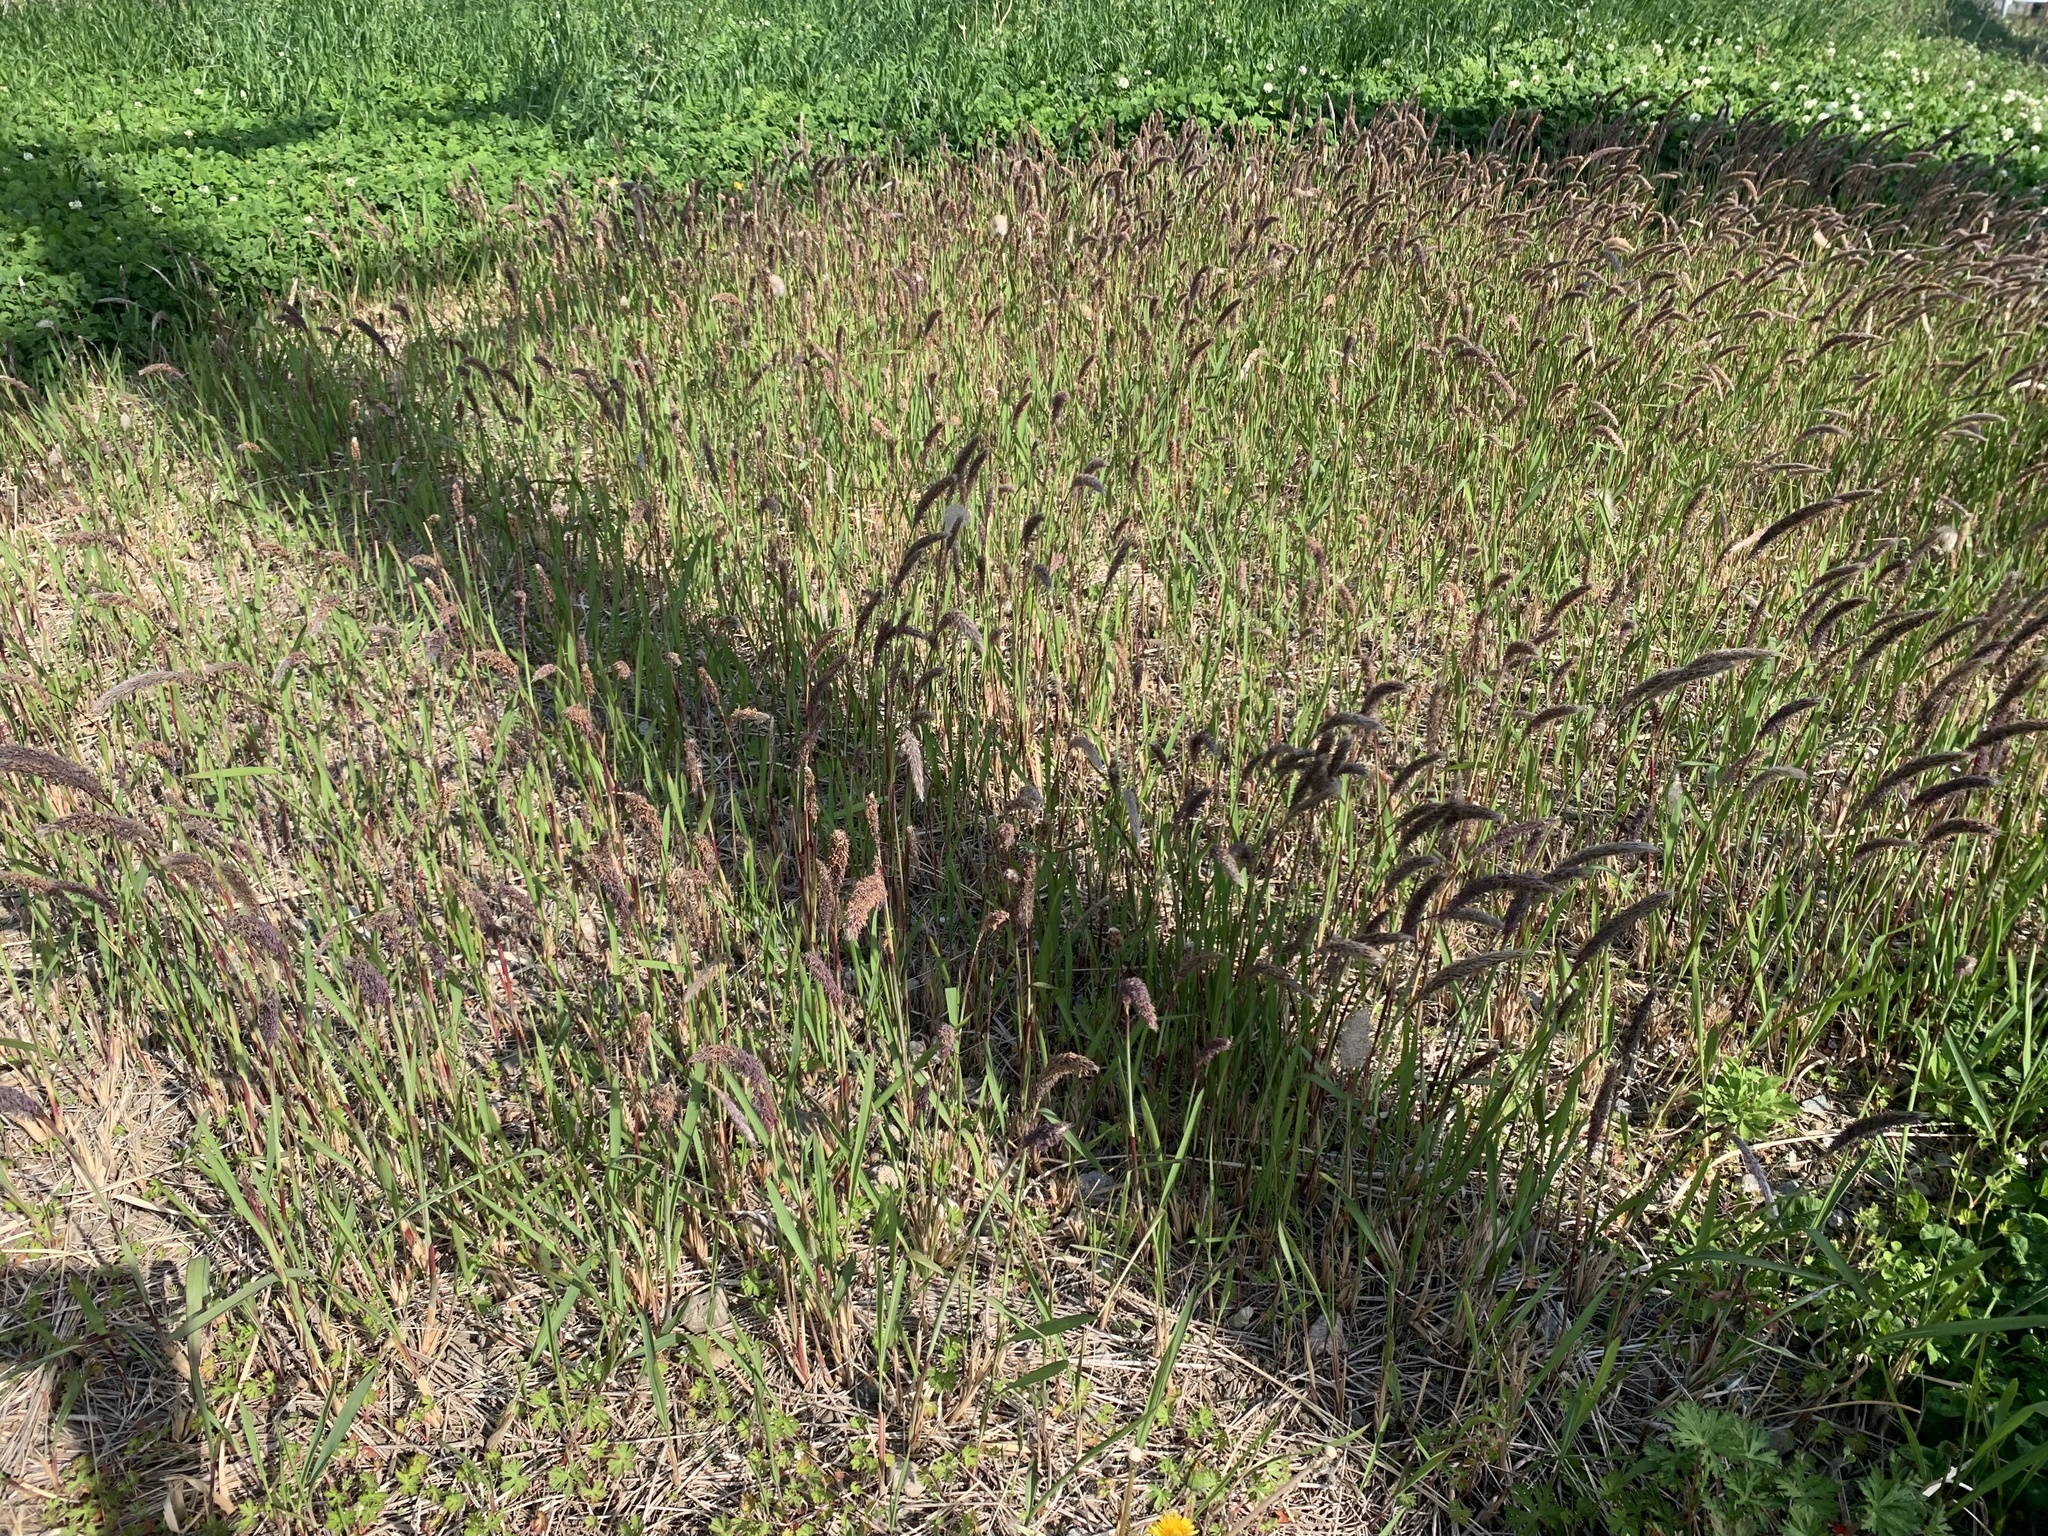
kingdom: Plantae
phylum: Tracheophyta
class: Liliopsida
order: Poales
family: Poaceae
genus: Imperata
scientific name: Imperata cylindrica
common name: Cogongrass
